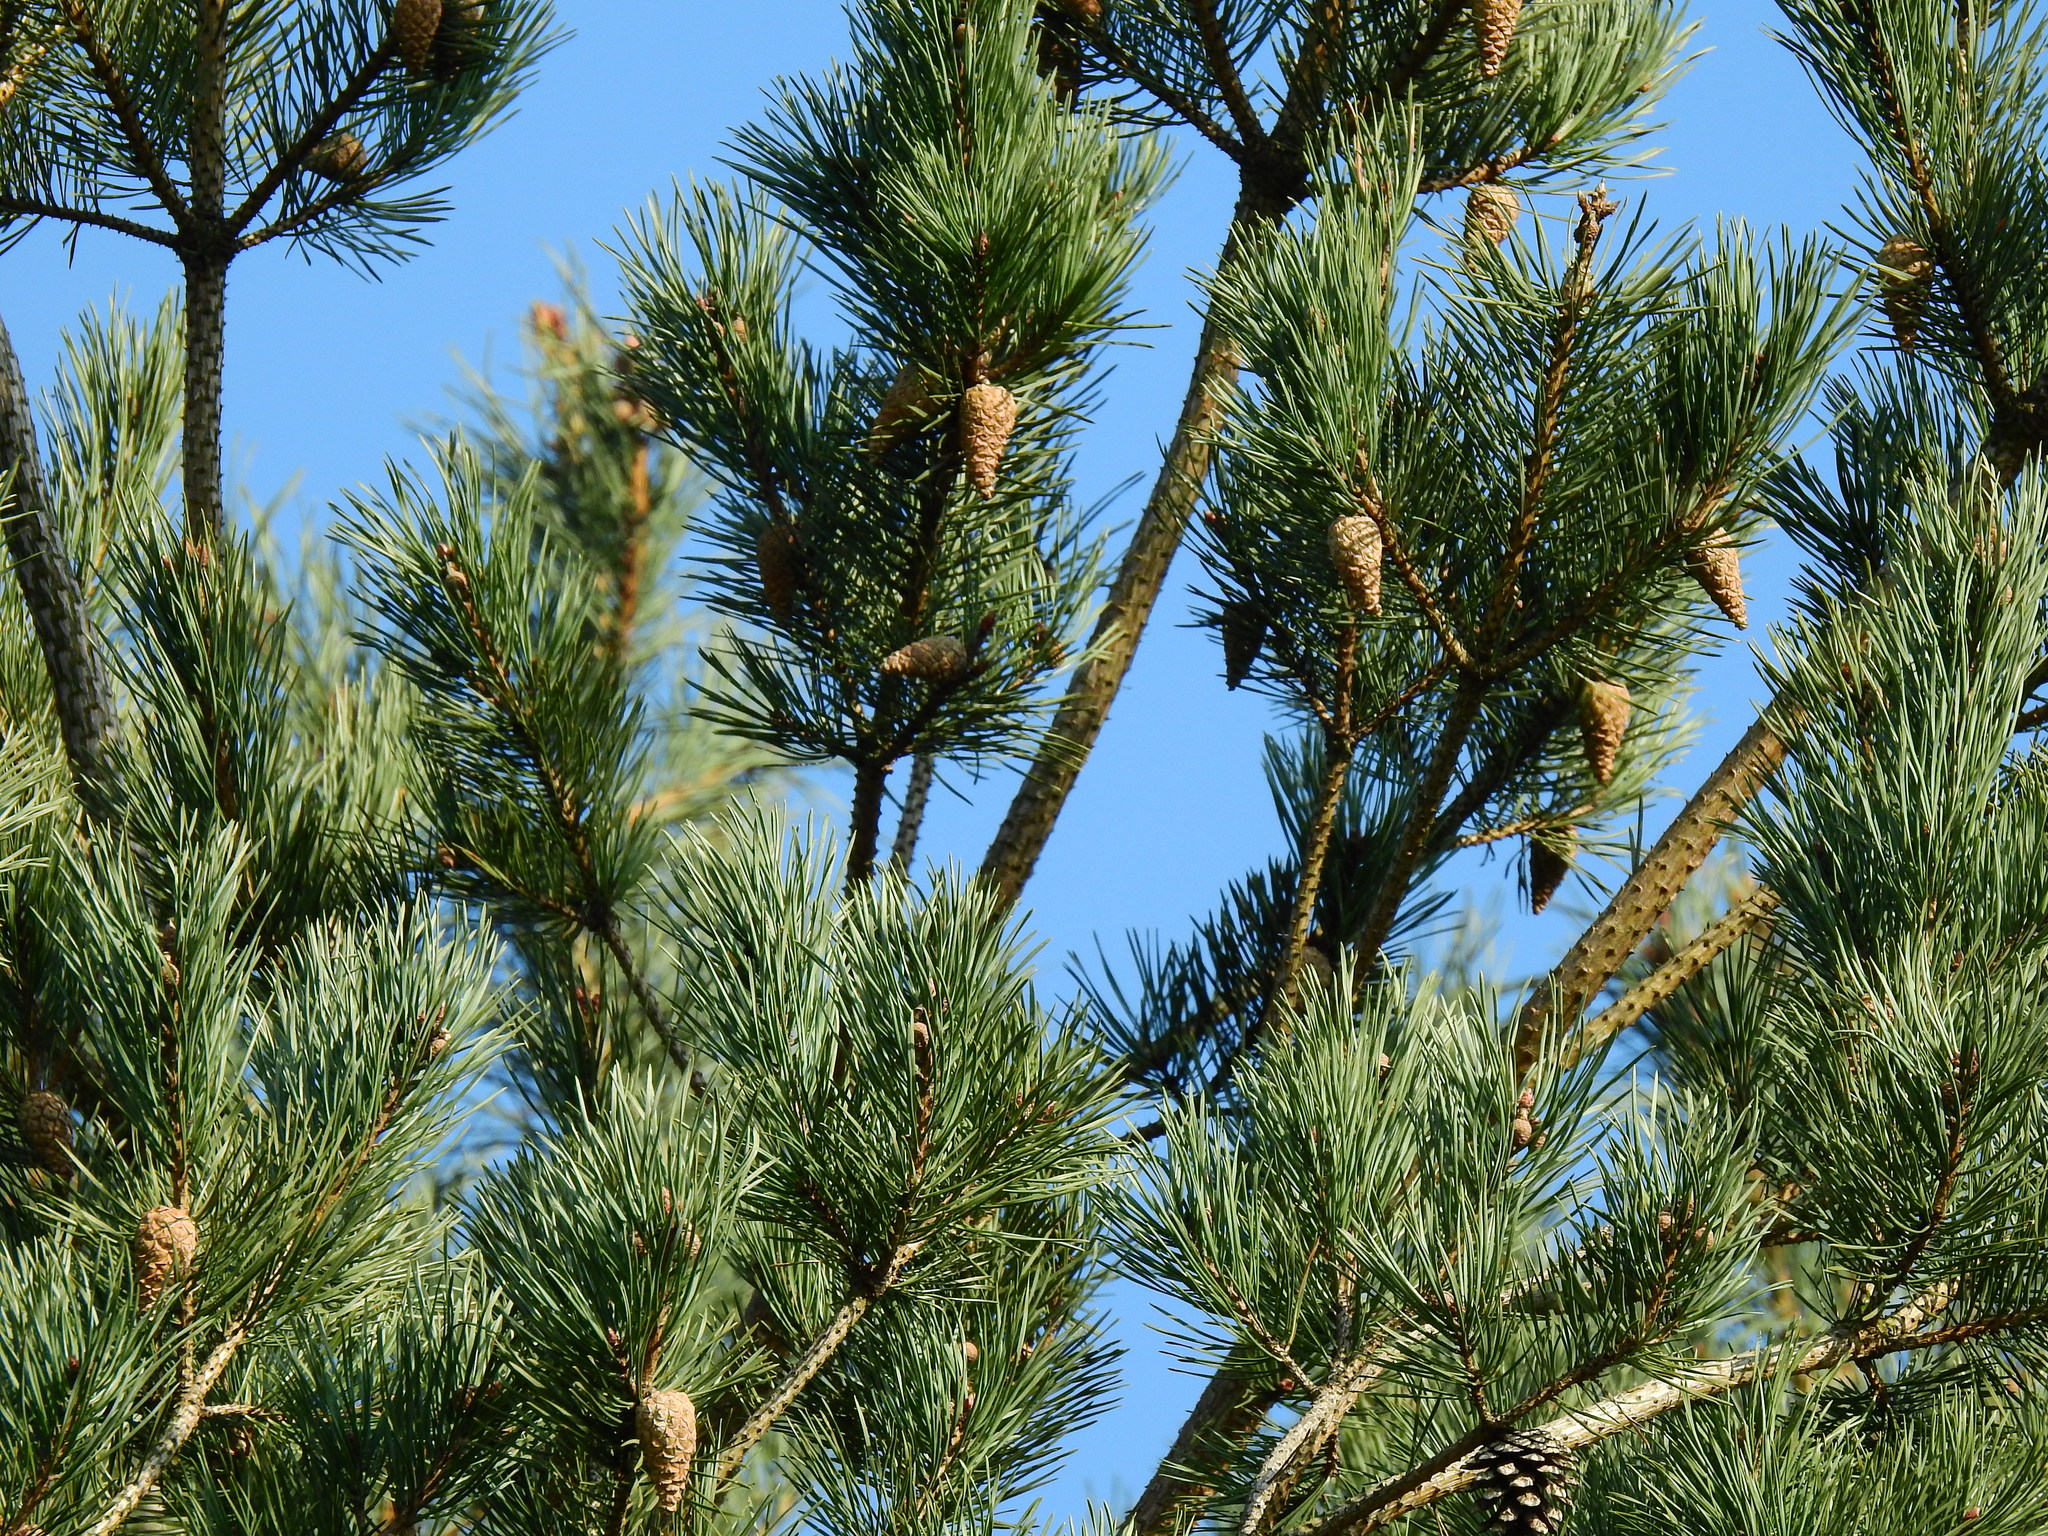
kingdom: Plantae
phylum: Tracheophyta
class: Pinopsida
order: Pinales
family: Pinaceae
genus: Pinus
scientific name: Pinus sylvestris
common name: Scots pine
